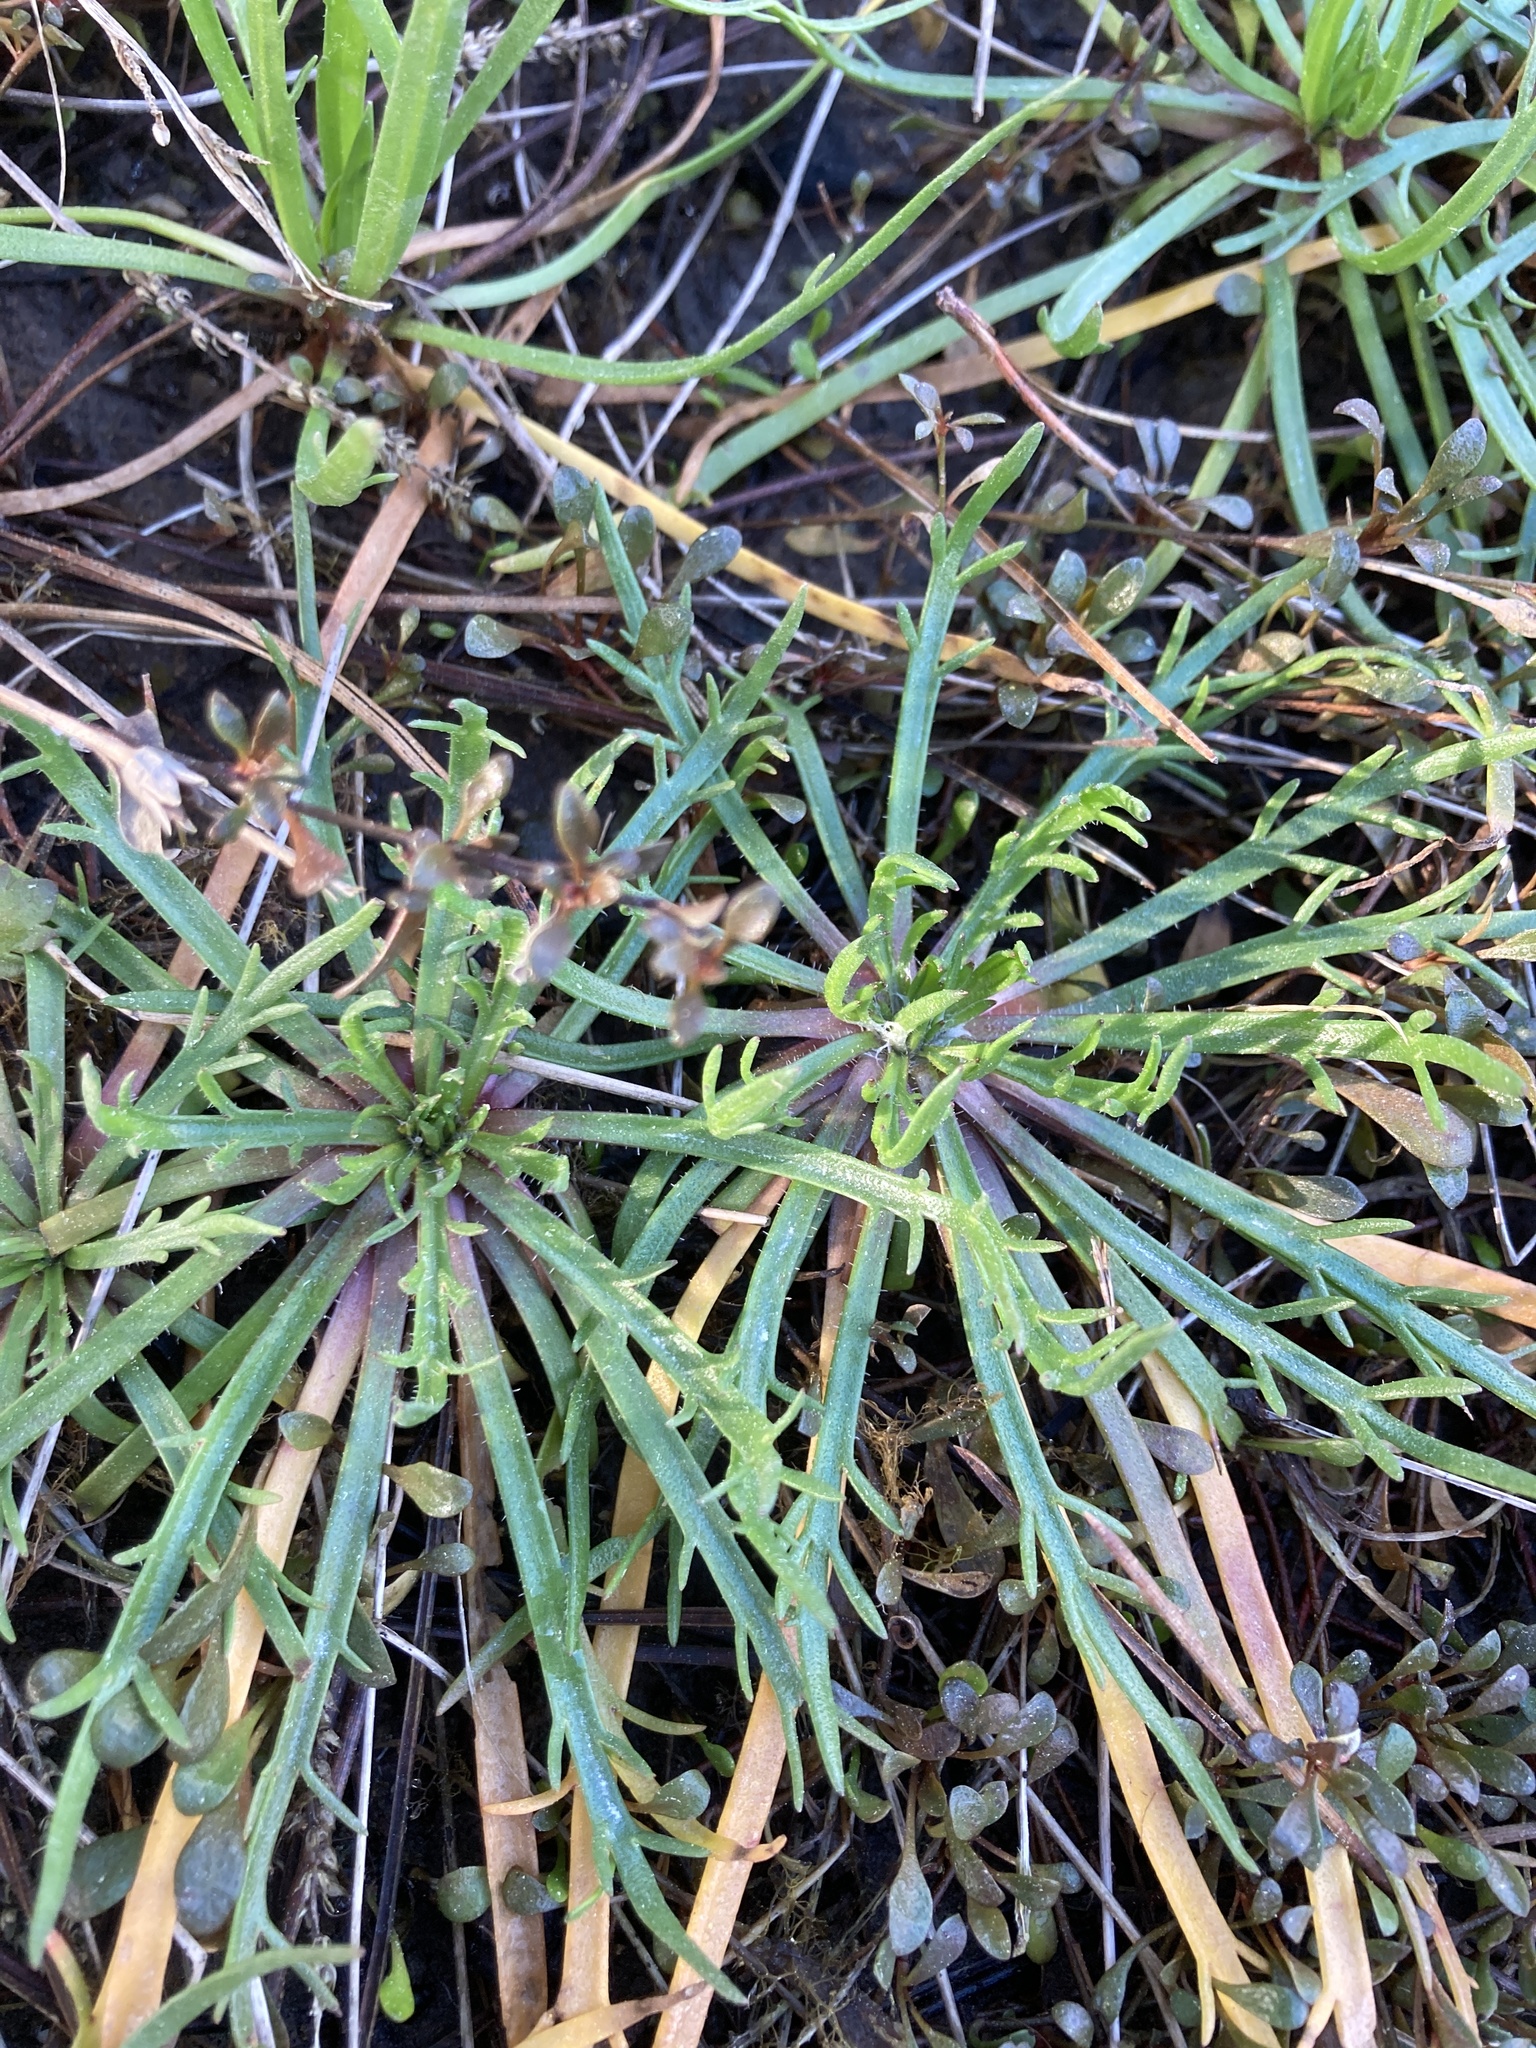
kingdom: Plantae
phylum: Tracheophyta
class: Magnoliopsida
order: Lamiales
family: Plantaginaceae
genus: Plantago
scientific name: Plantago coronopus
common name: Buck's-horn plantain
